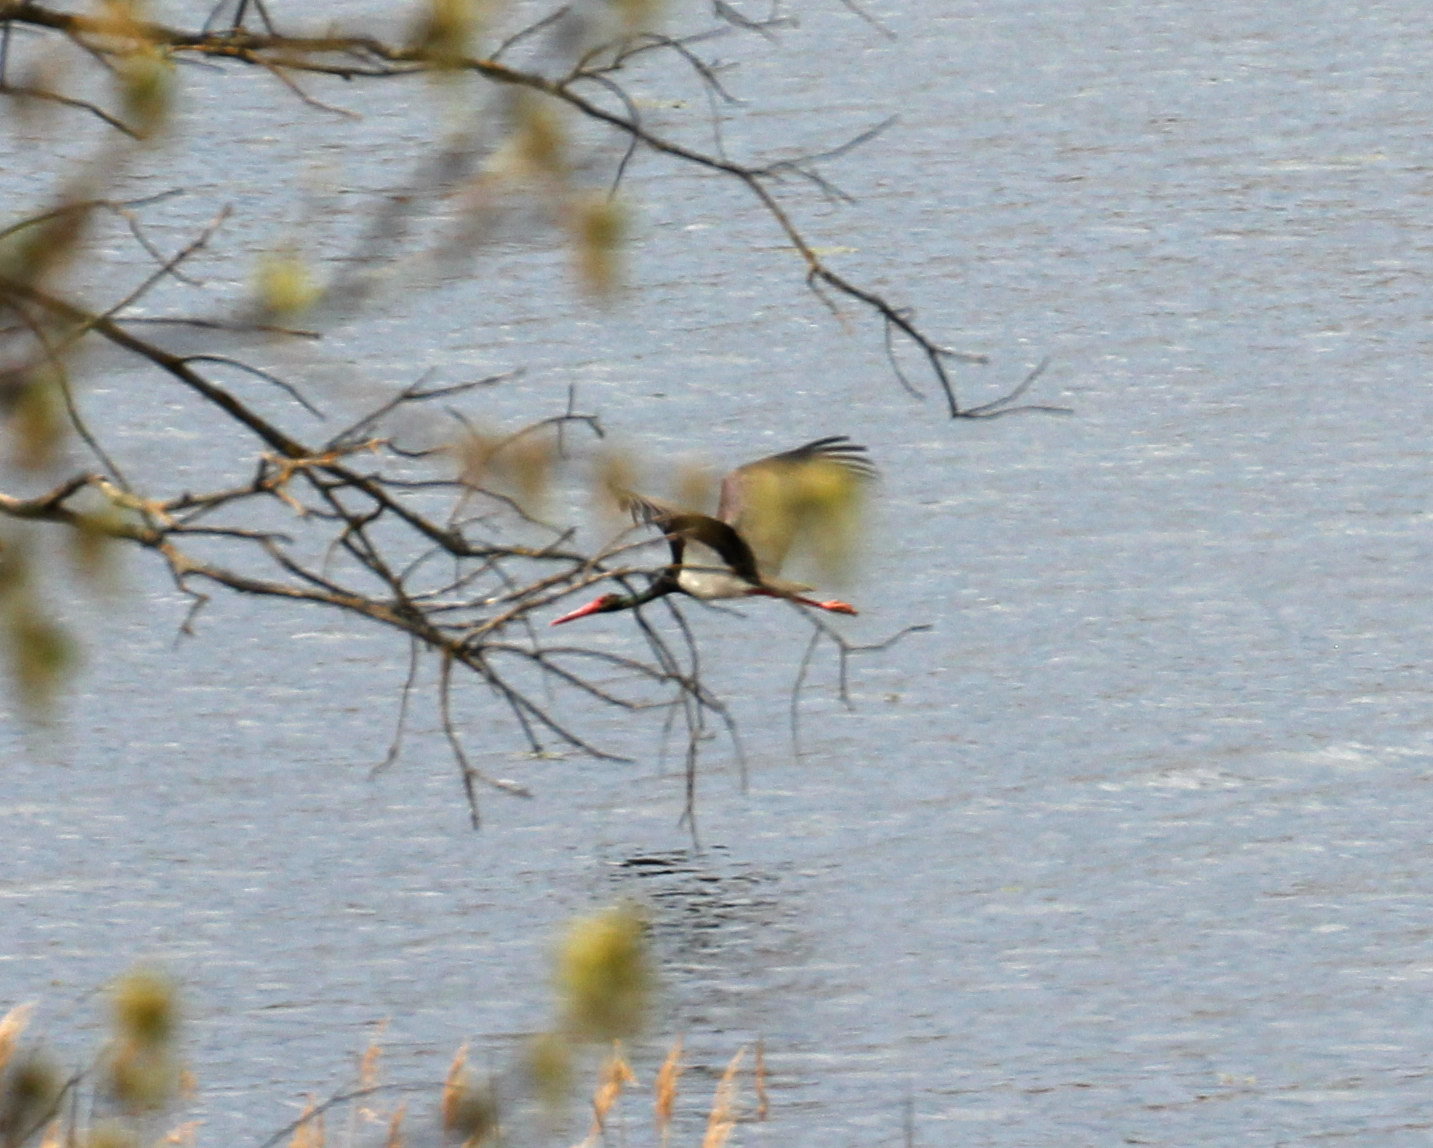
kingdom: Animalia
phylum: Chordata
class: Aves
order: Ciconiiformes
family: Ciconiidae
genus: Ciconia
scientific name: Ciconia nigra
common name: Black stork
